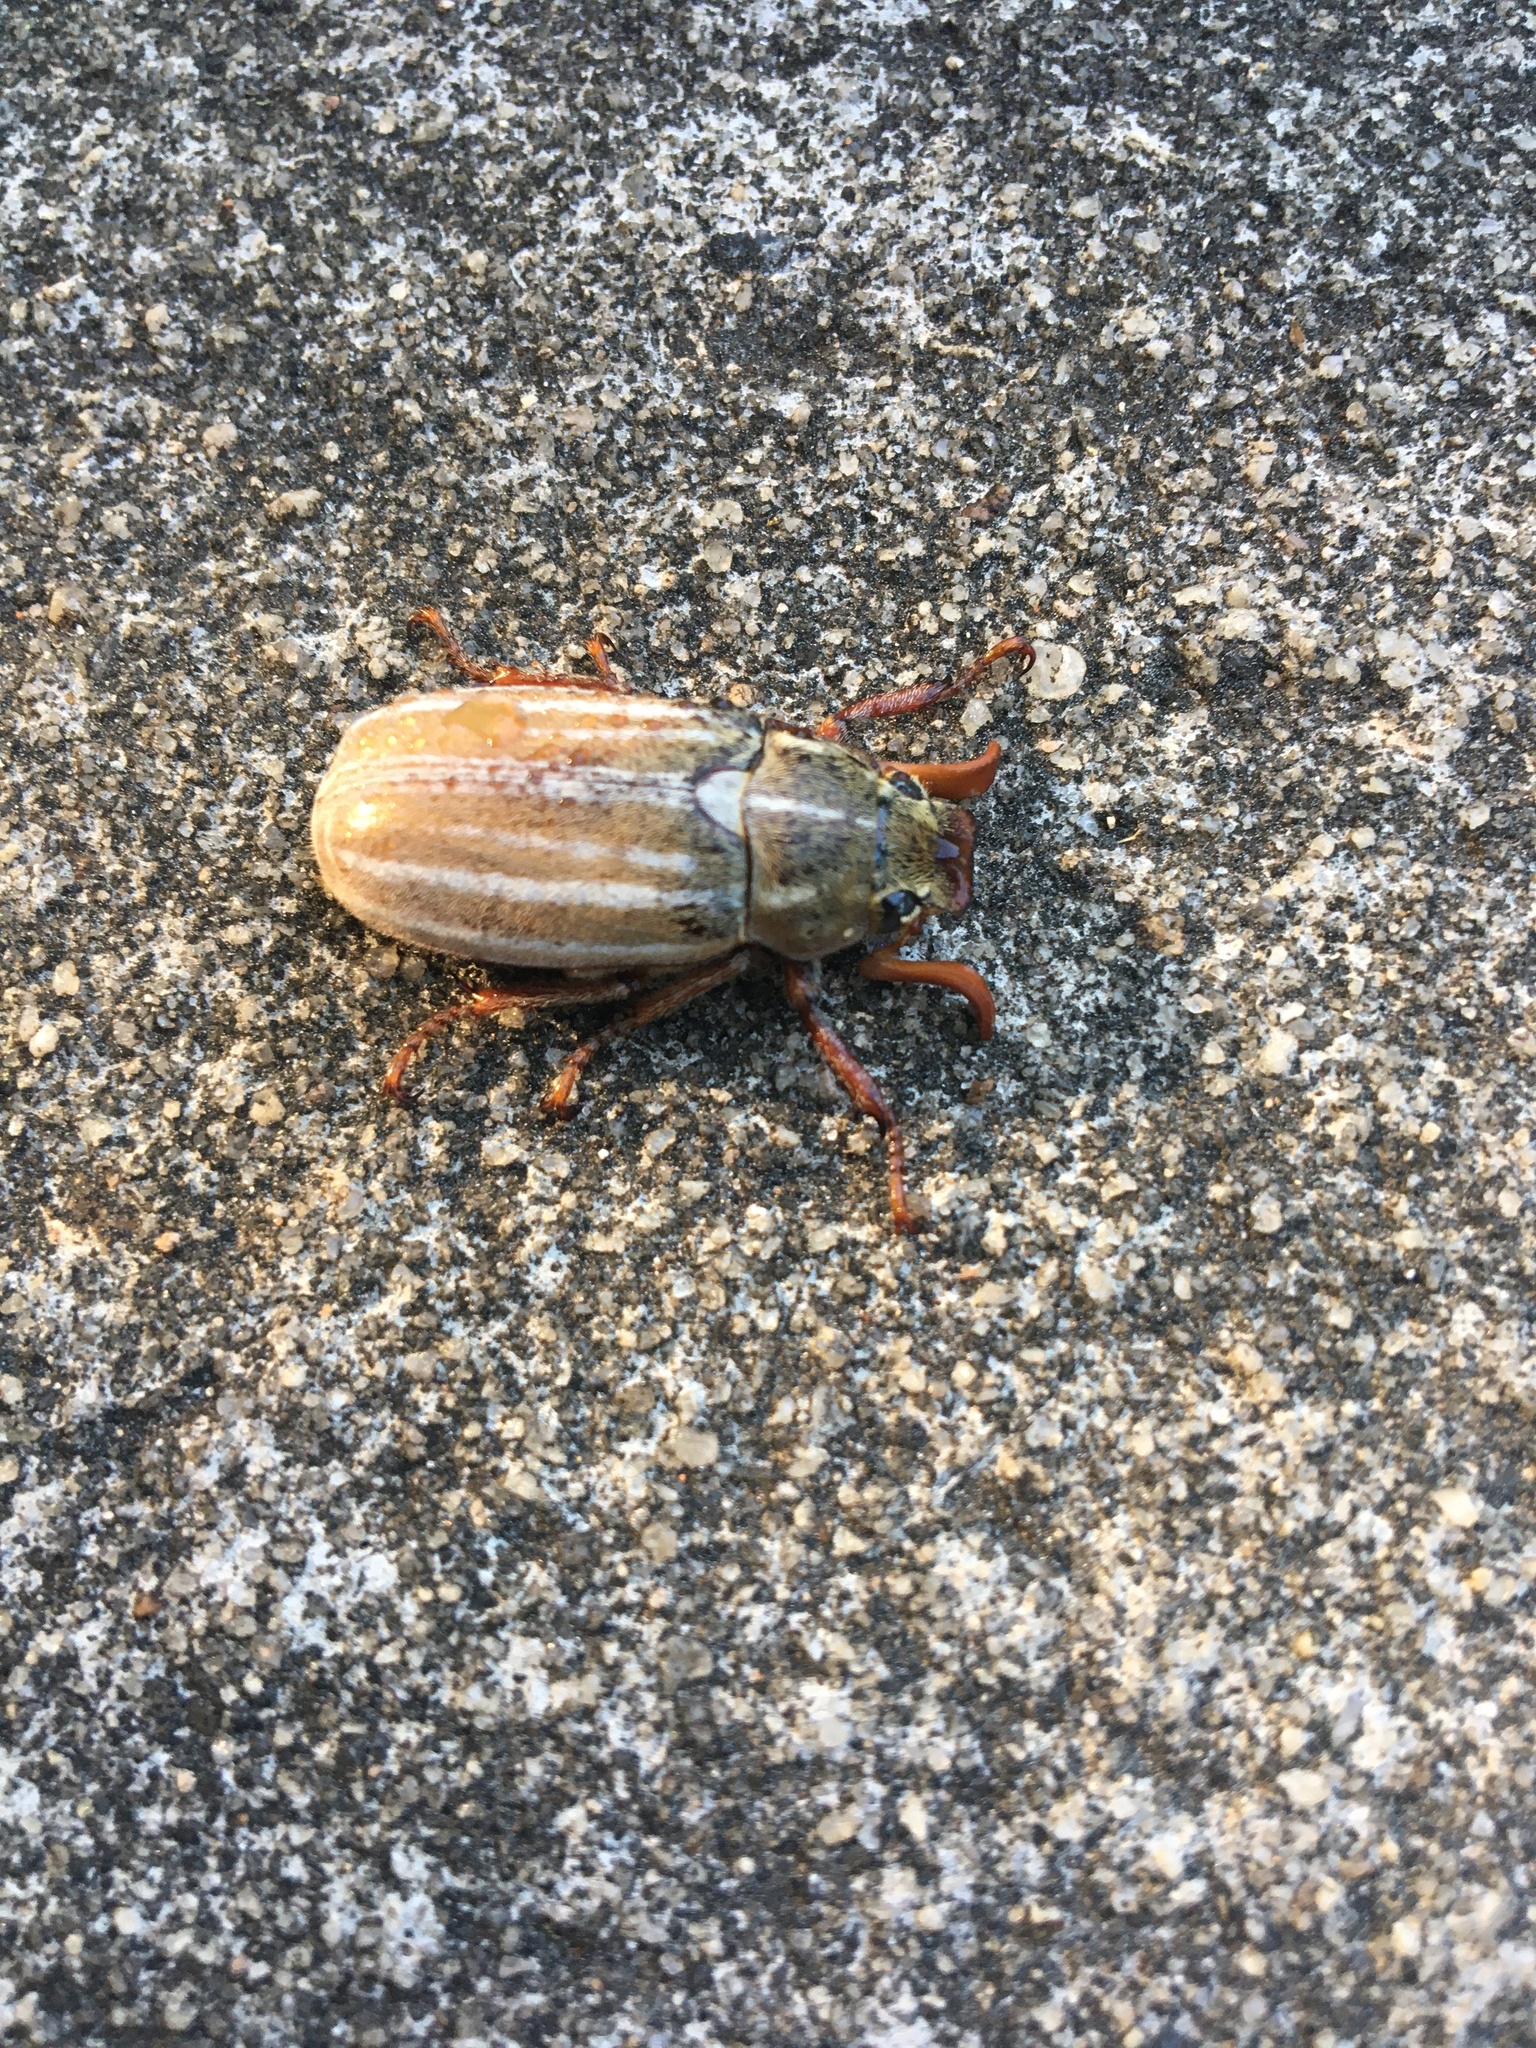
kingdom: Animalia
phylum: Arthropoda
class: Insecta
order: Coleoptera
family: Scarabaeidae
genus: Polyphylla
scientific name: Polyphylla occidentalis
